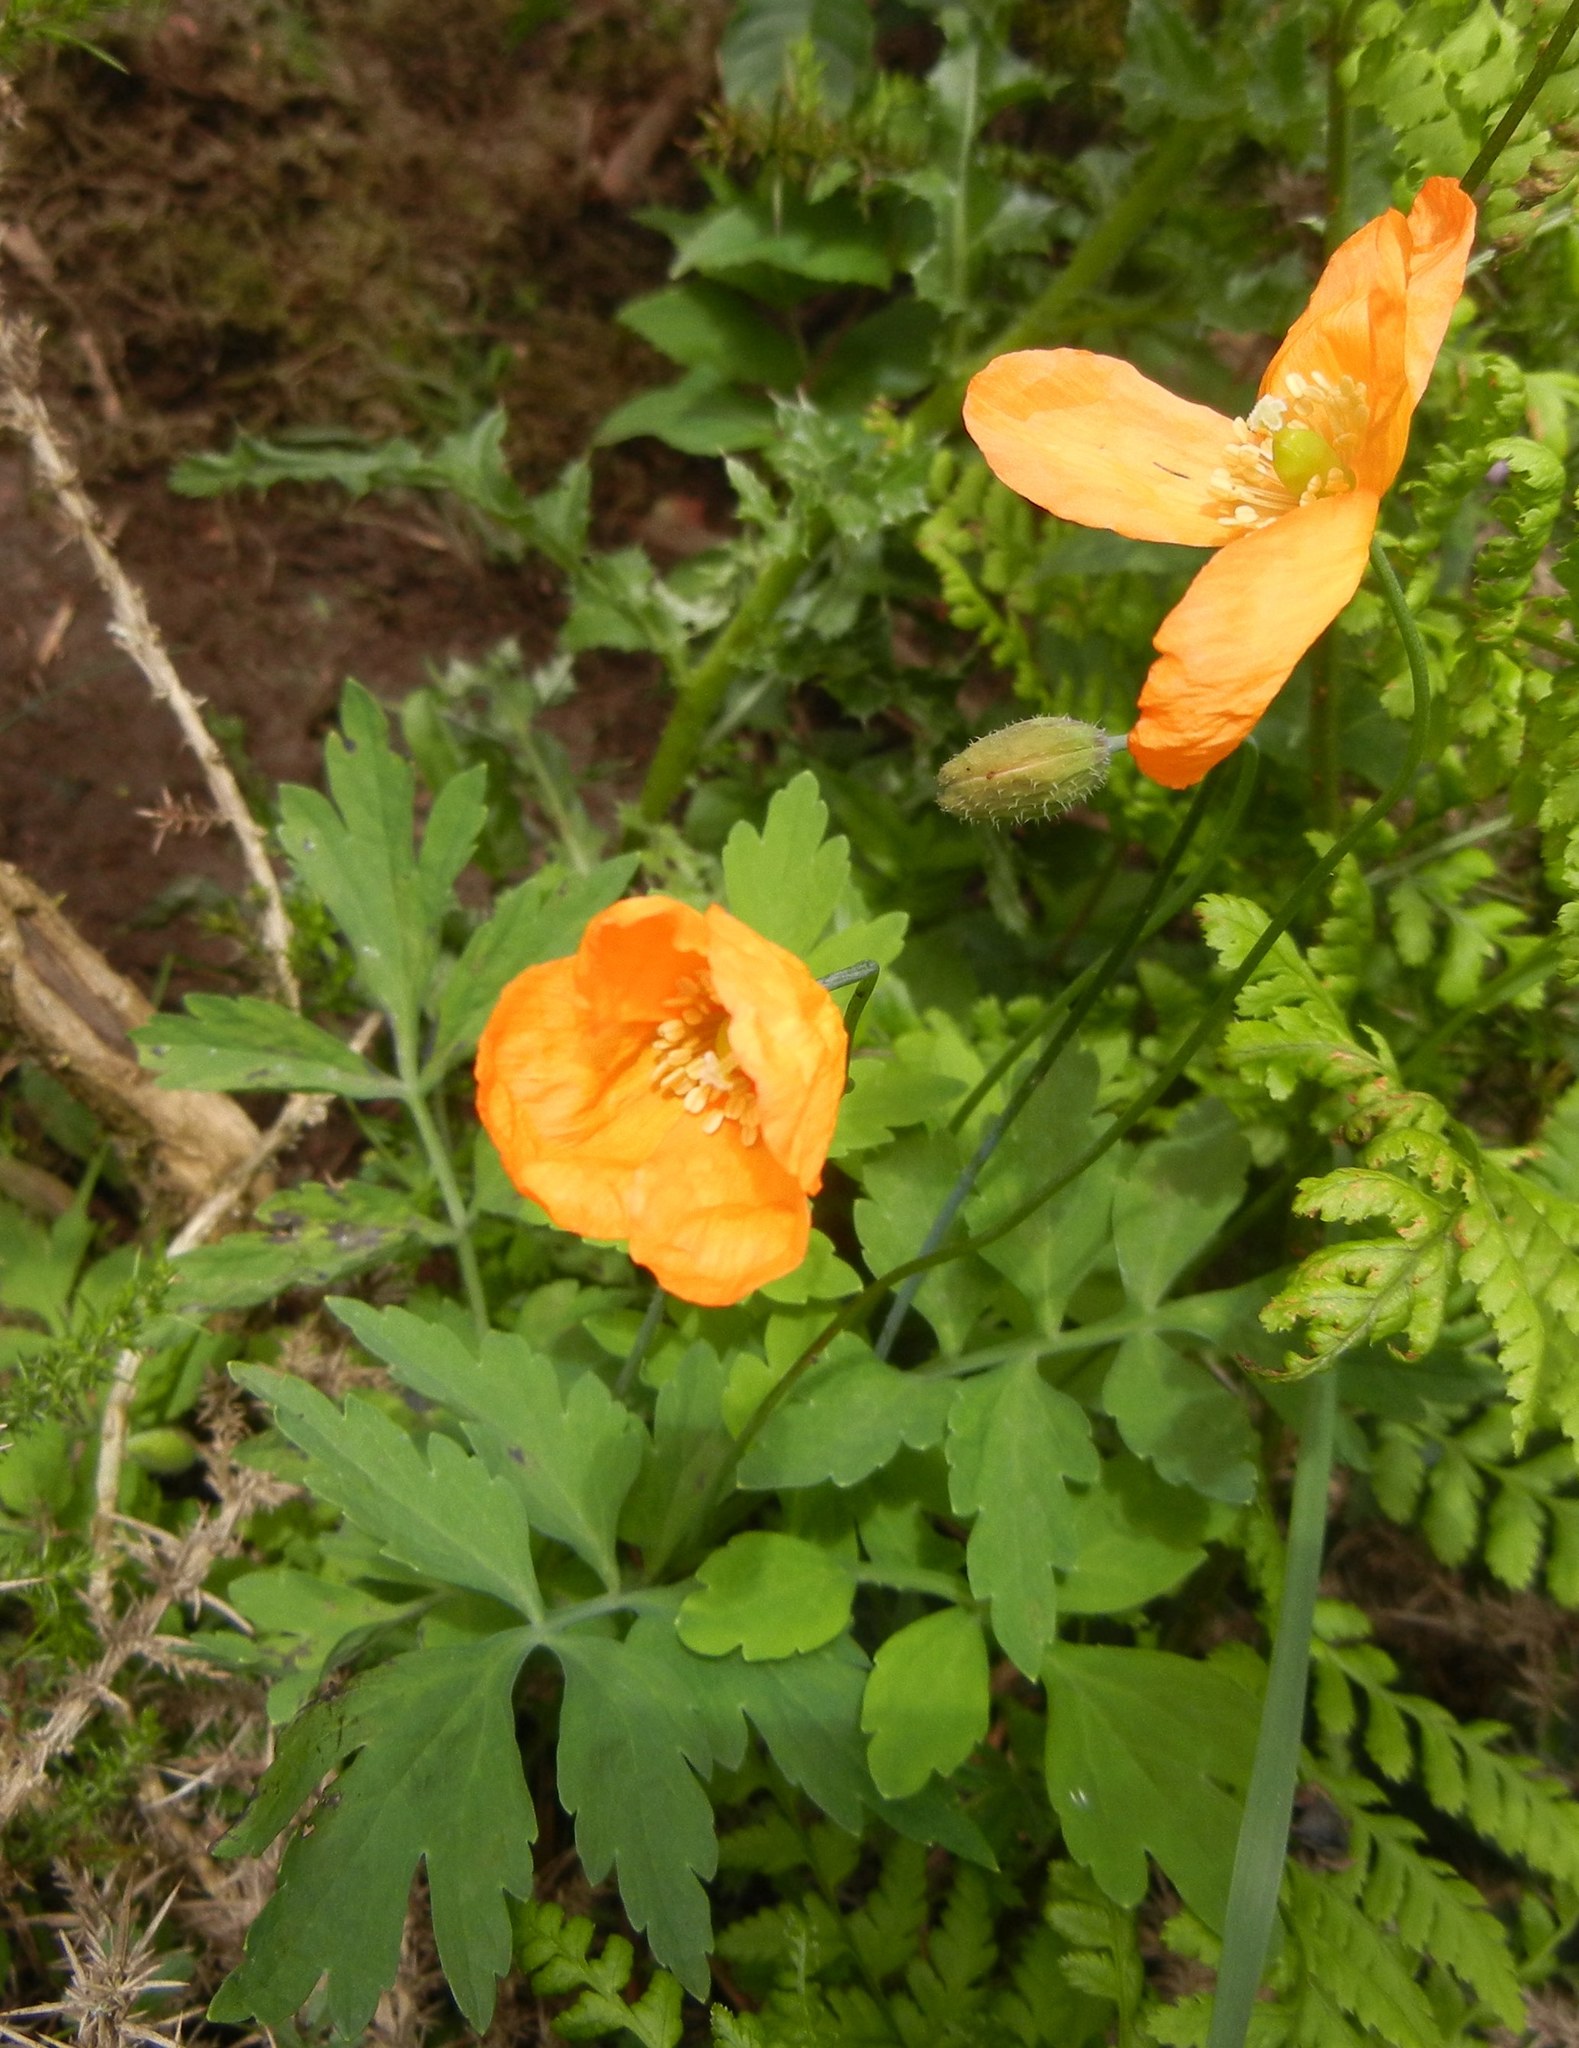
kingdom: Plantae
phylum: Tracheophyta
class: Magnoliopsida
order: Ranunculales
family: Papaveraceae
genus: Papaver
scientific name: Papaver cambricum
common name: Poppy
